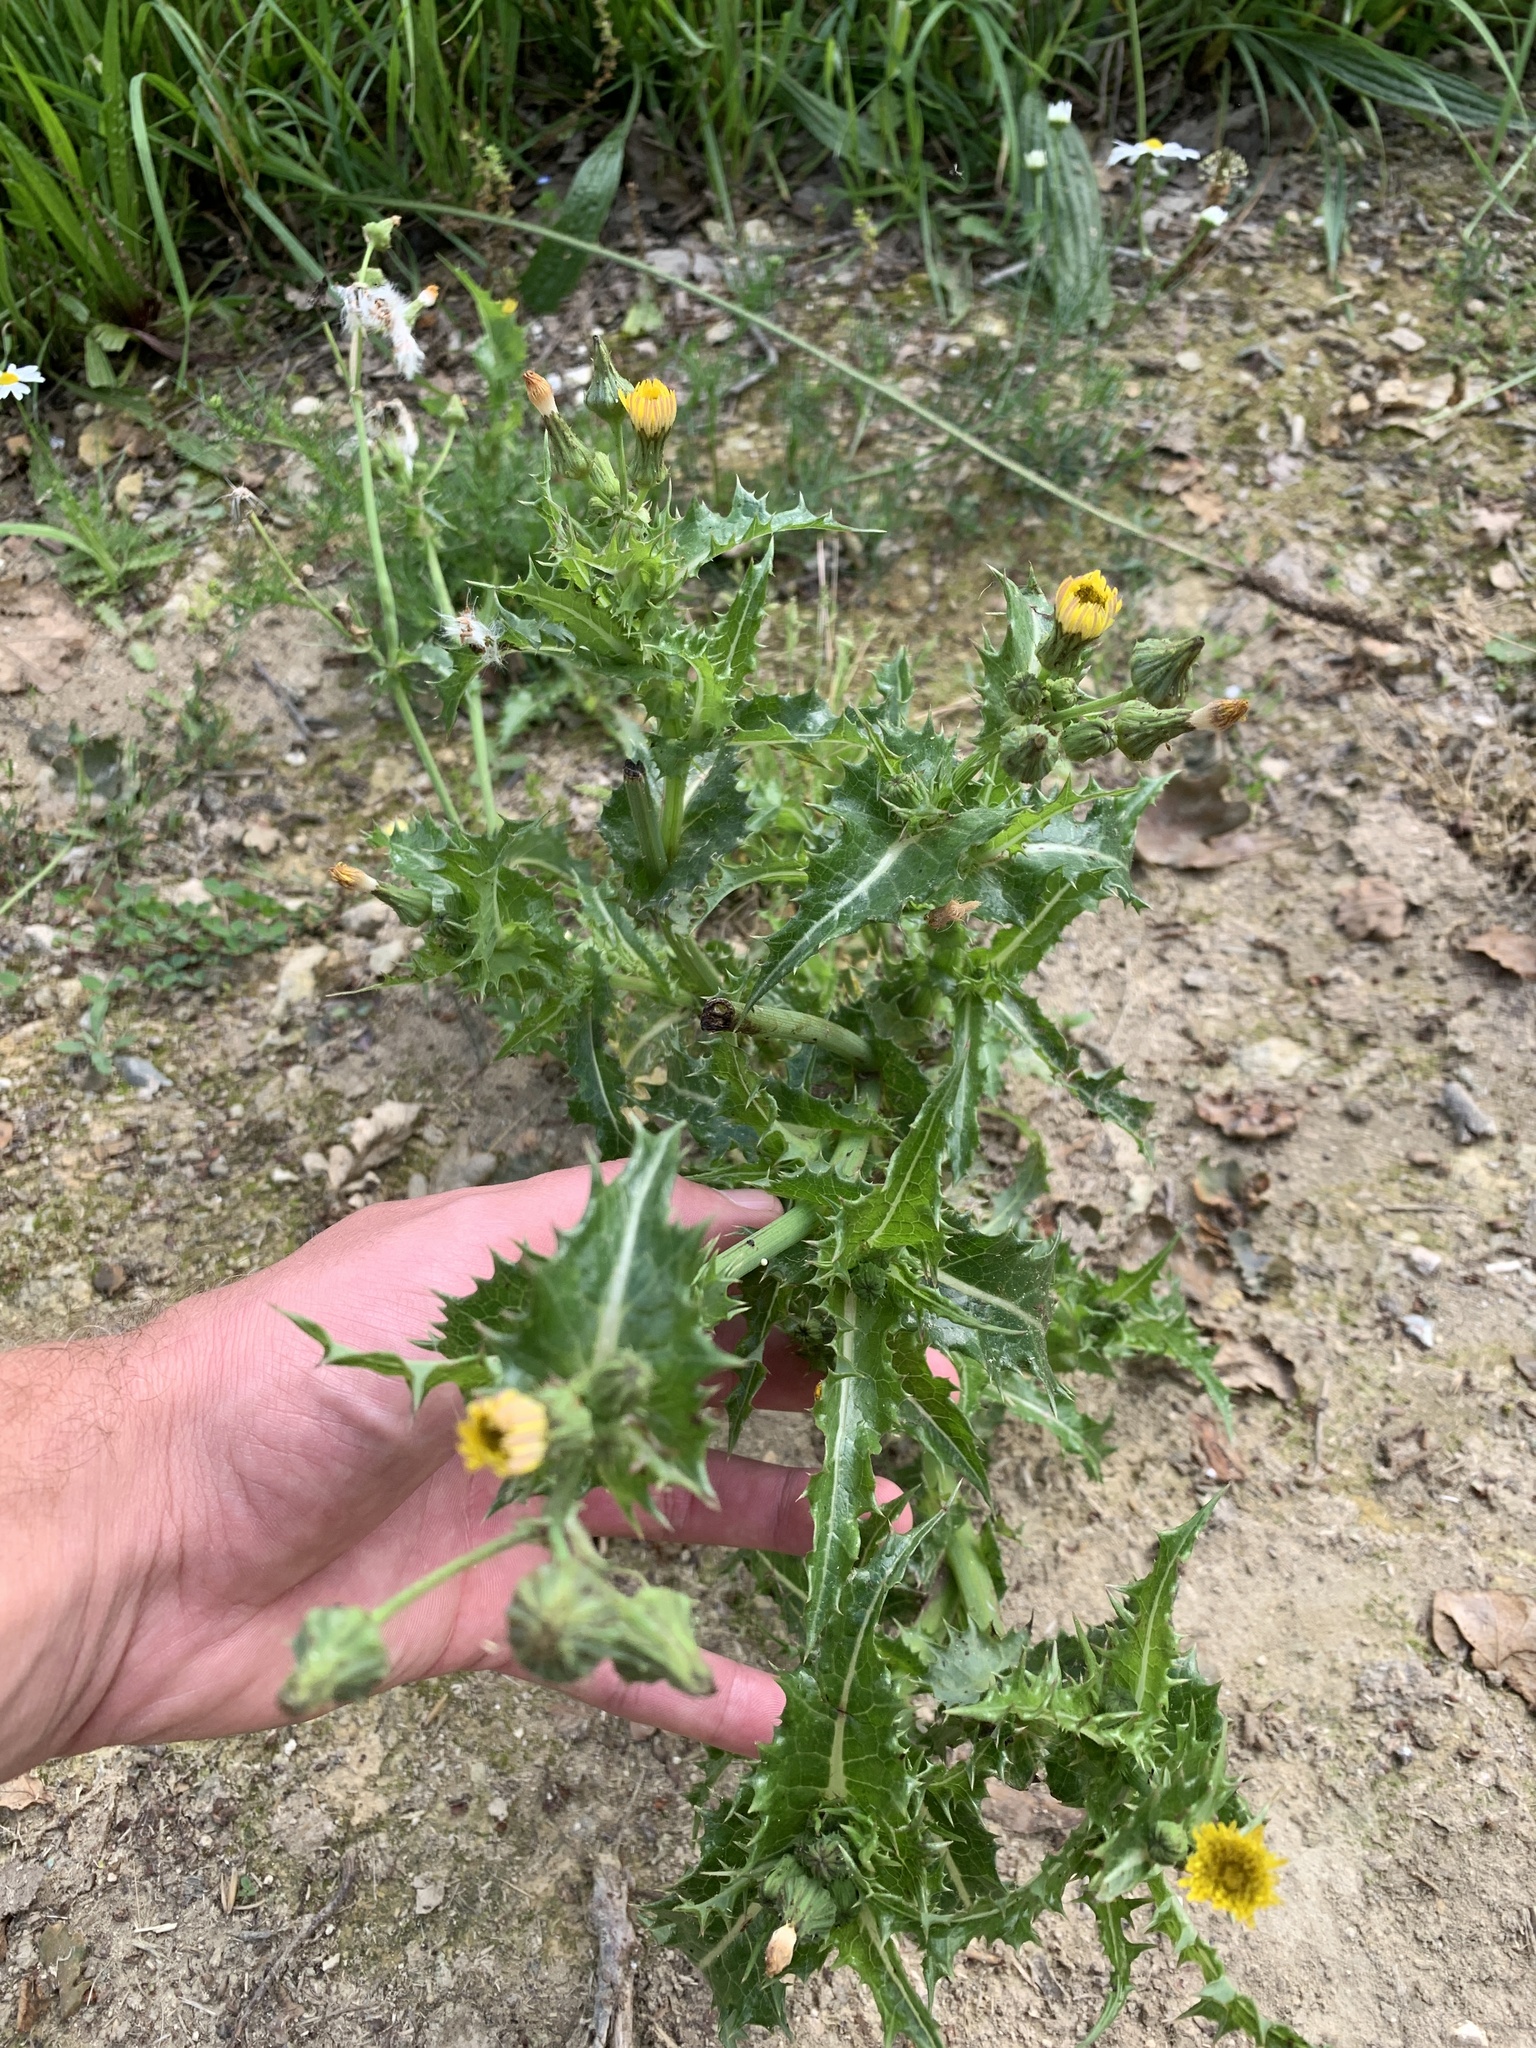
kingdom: Plantae
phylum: Tracheophyta
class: Magnoliopsida
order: Asterales
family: Asteraceae
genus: Sonchus
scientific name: Sonchus asper
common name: Prickly sow-thistle
